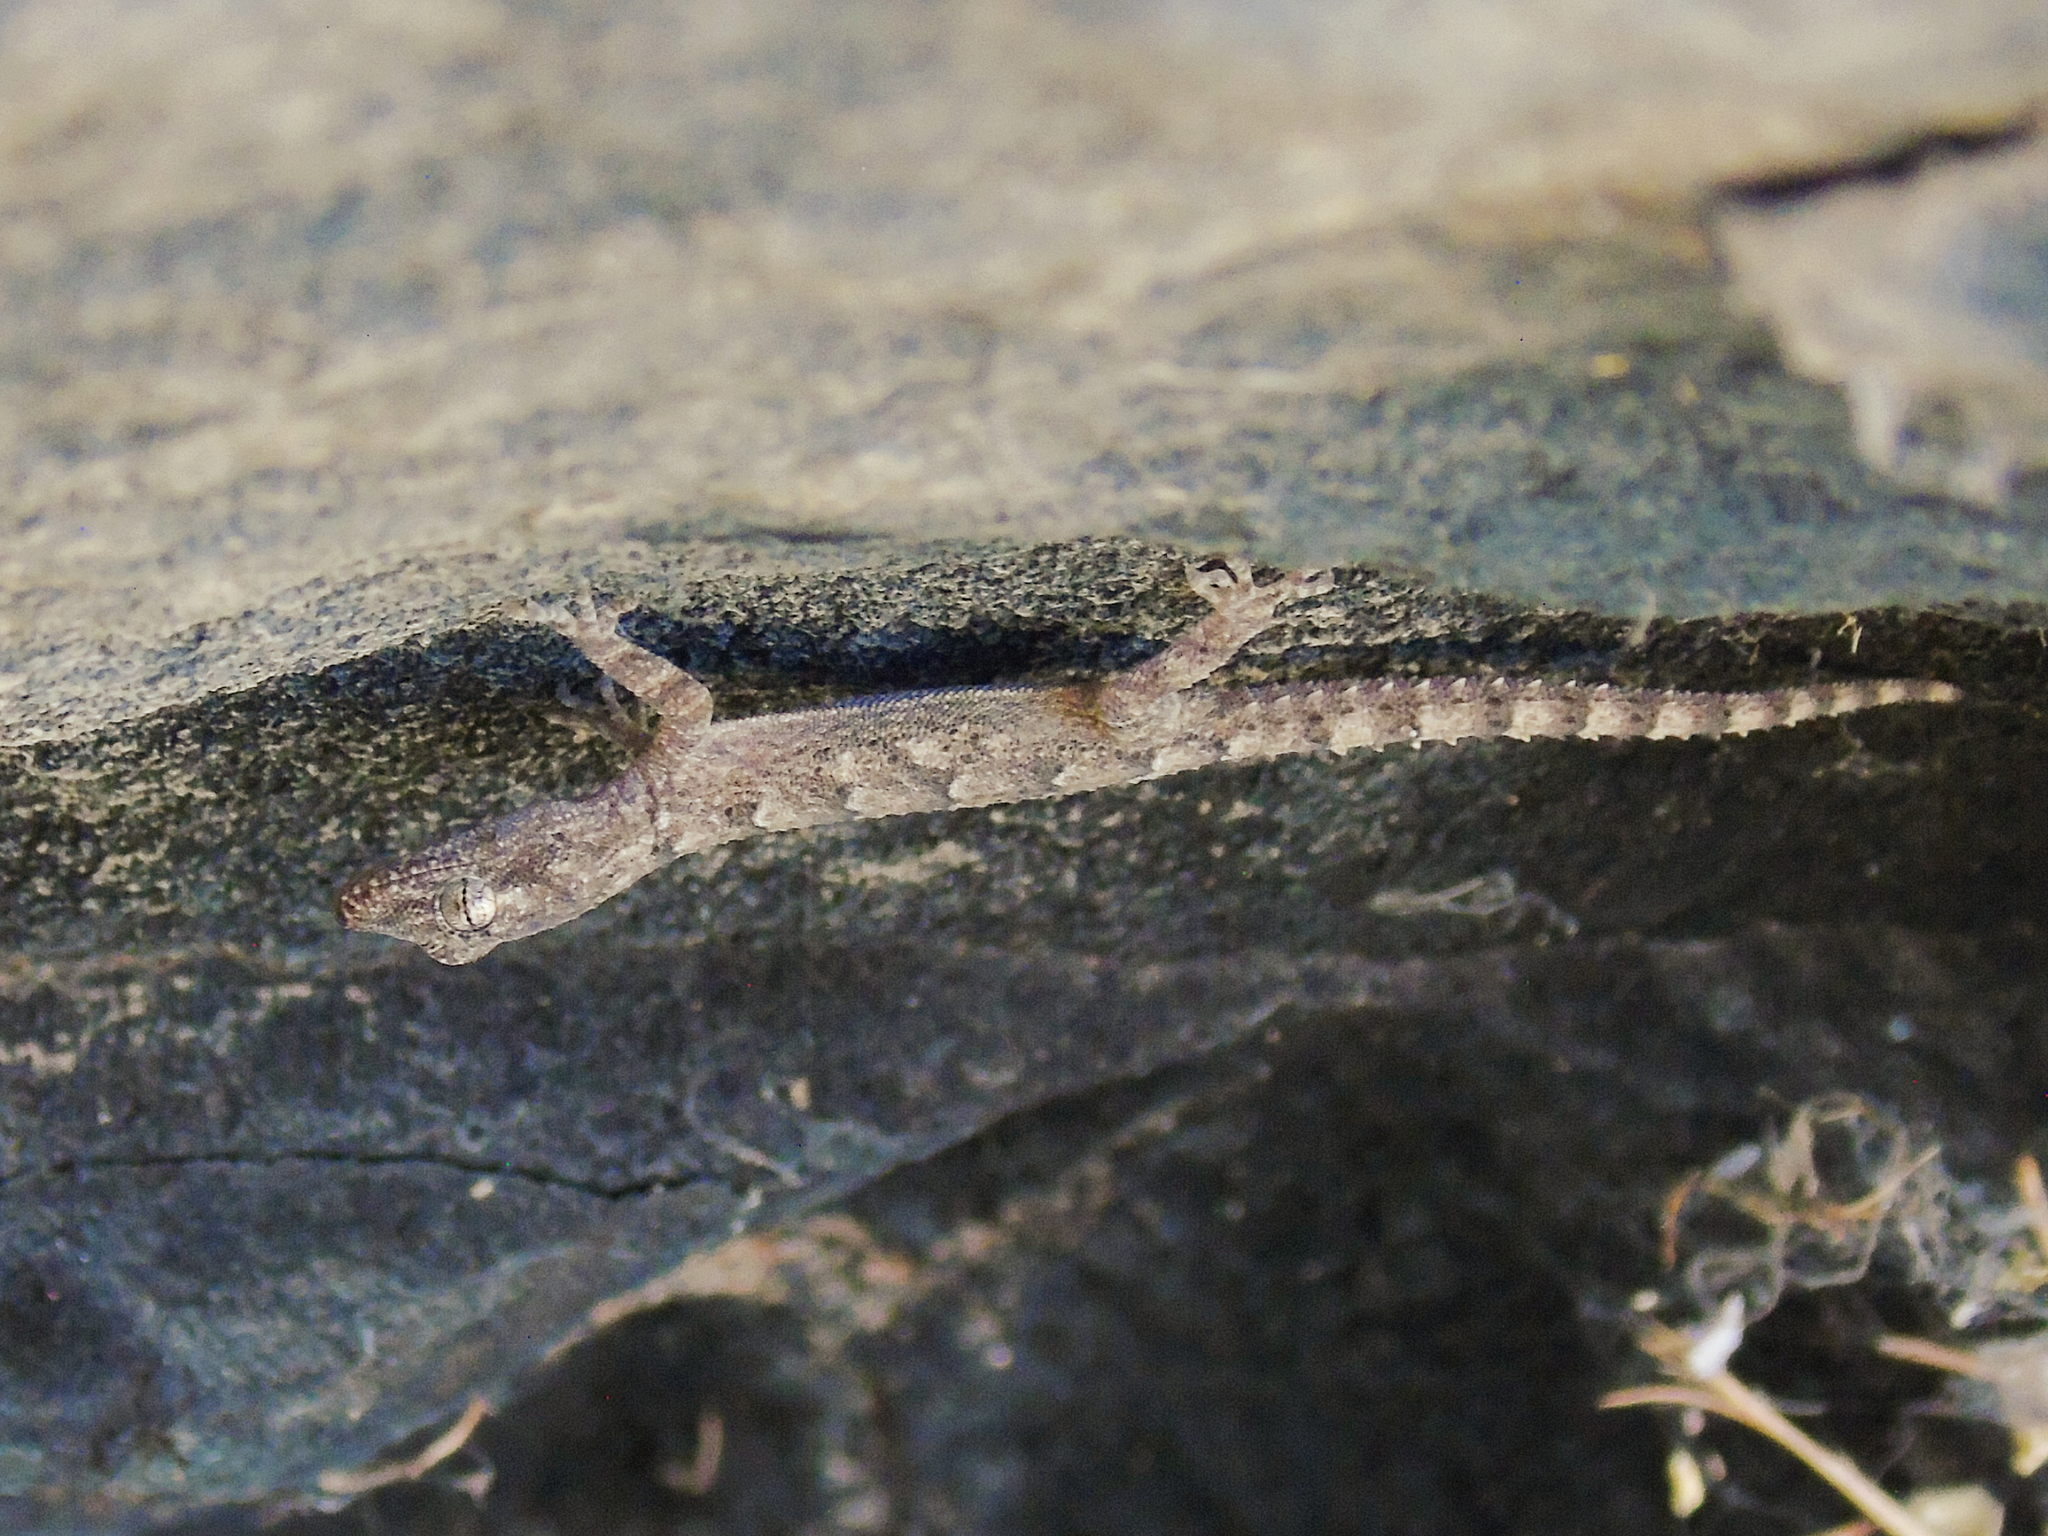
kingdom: Animalia
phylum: Chordata
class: Squamata
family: Gekkonidae
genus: Mediodactylus
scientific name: Mediodactylus heterocercus
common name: Asia minor thin-toed gecko
